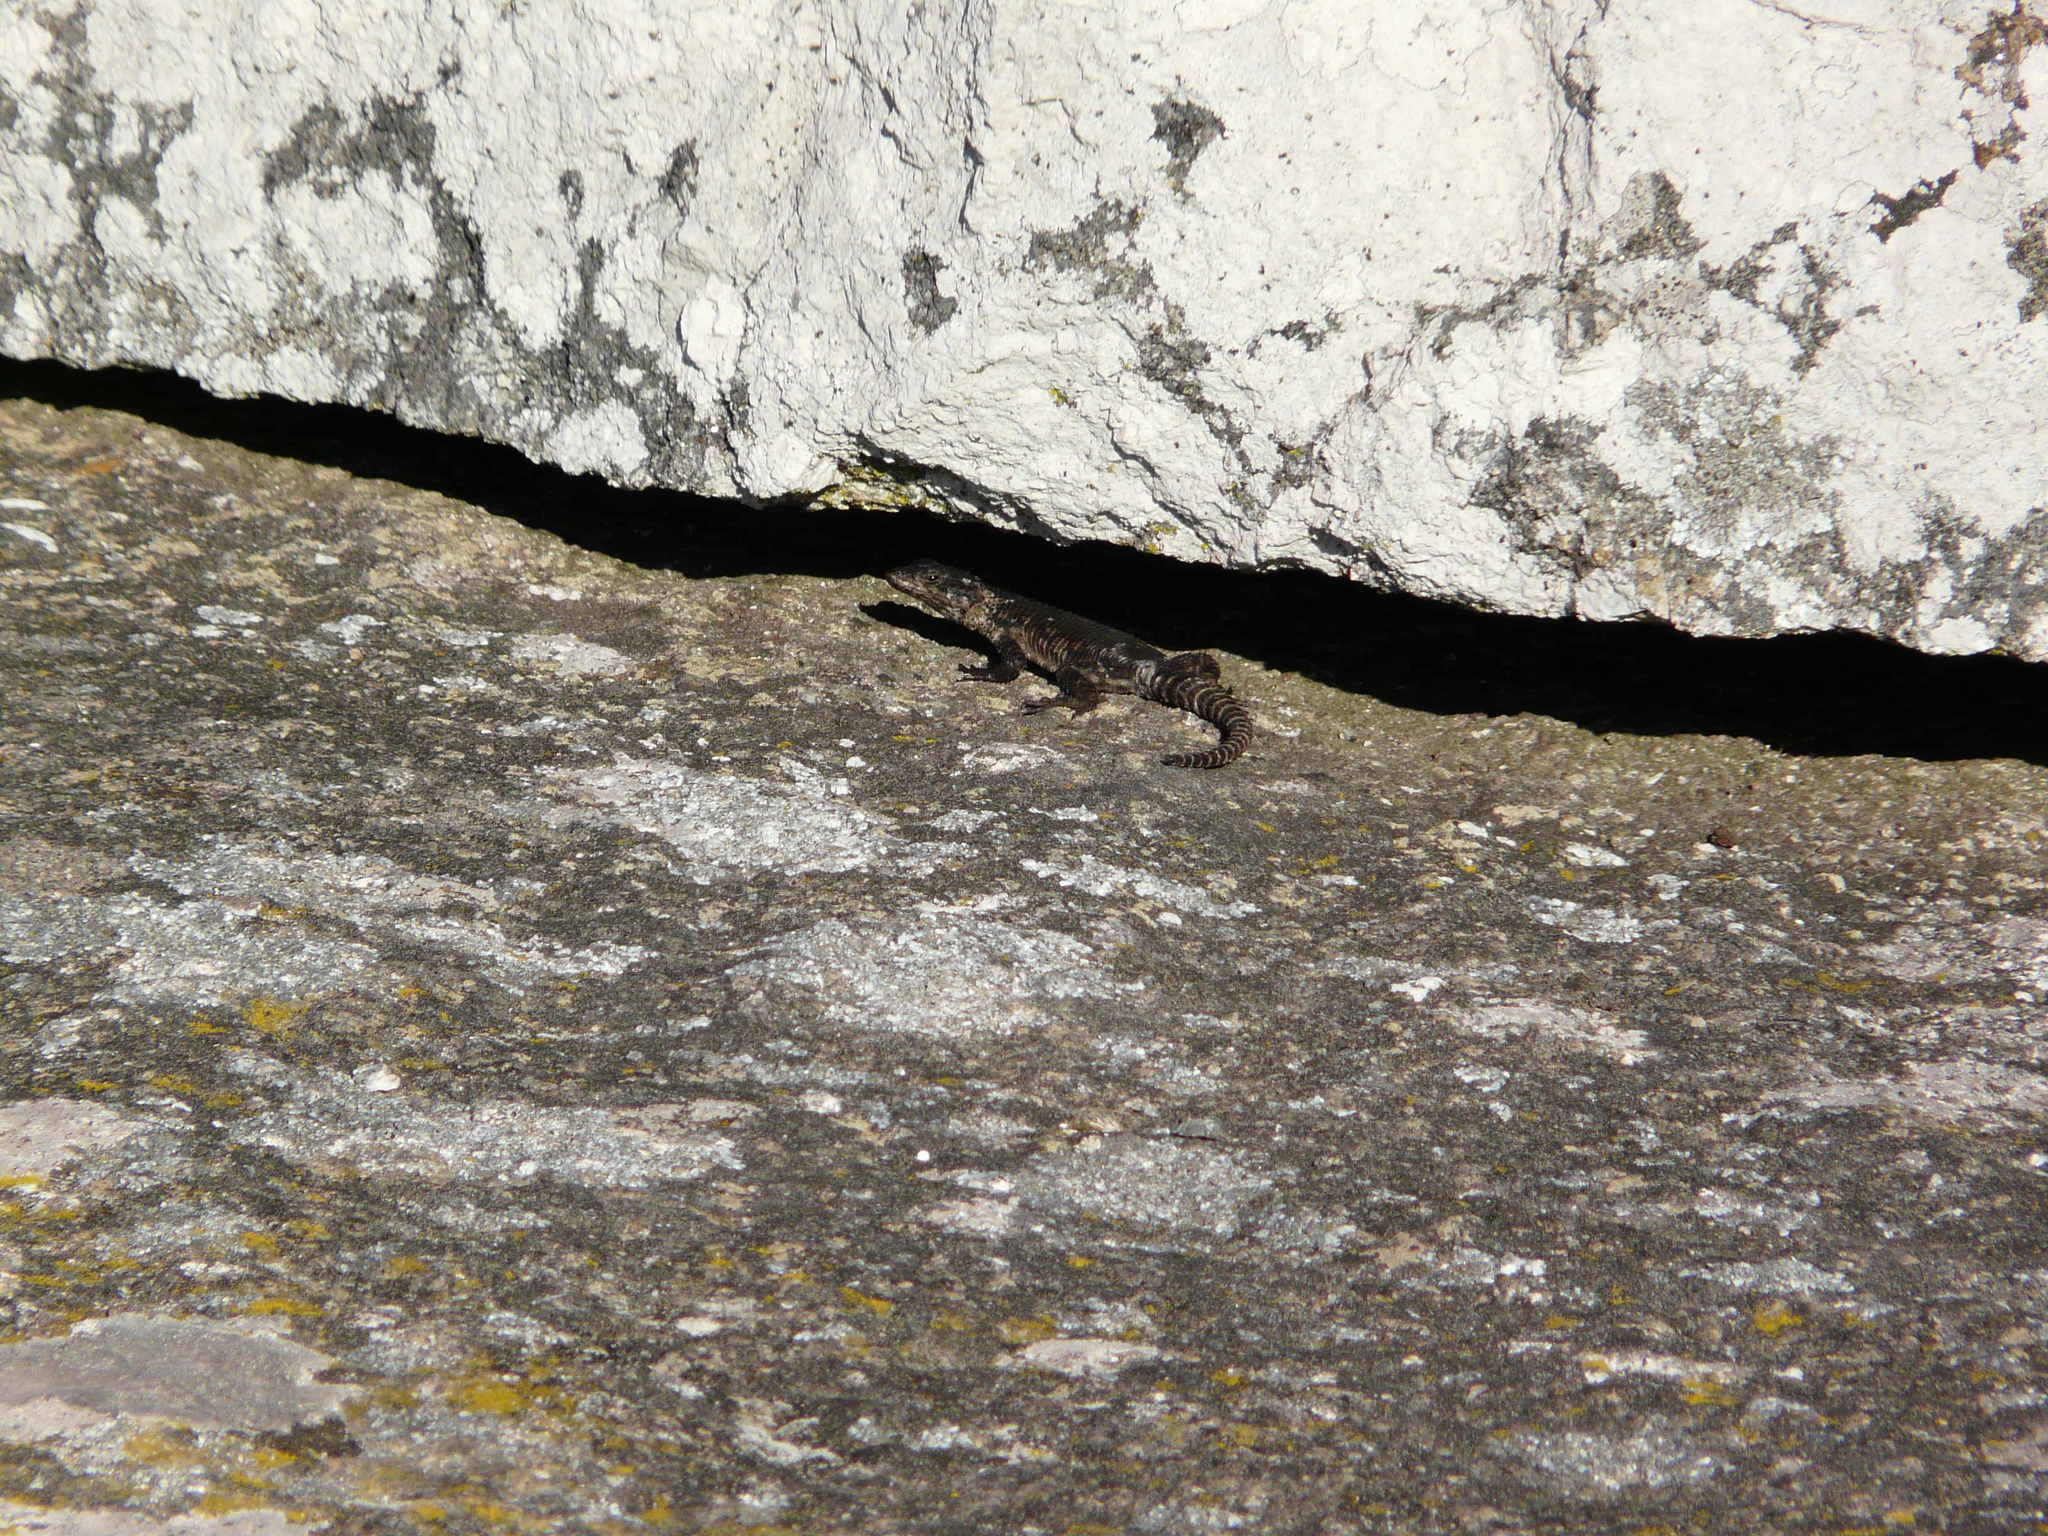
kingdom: Animalia
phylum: Chordata
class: Squamata
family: Cordylidae
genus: Karusasaurus
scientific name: Karusasaurus polyzonus
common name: Karoo girdled lizard
